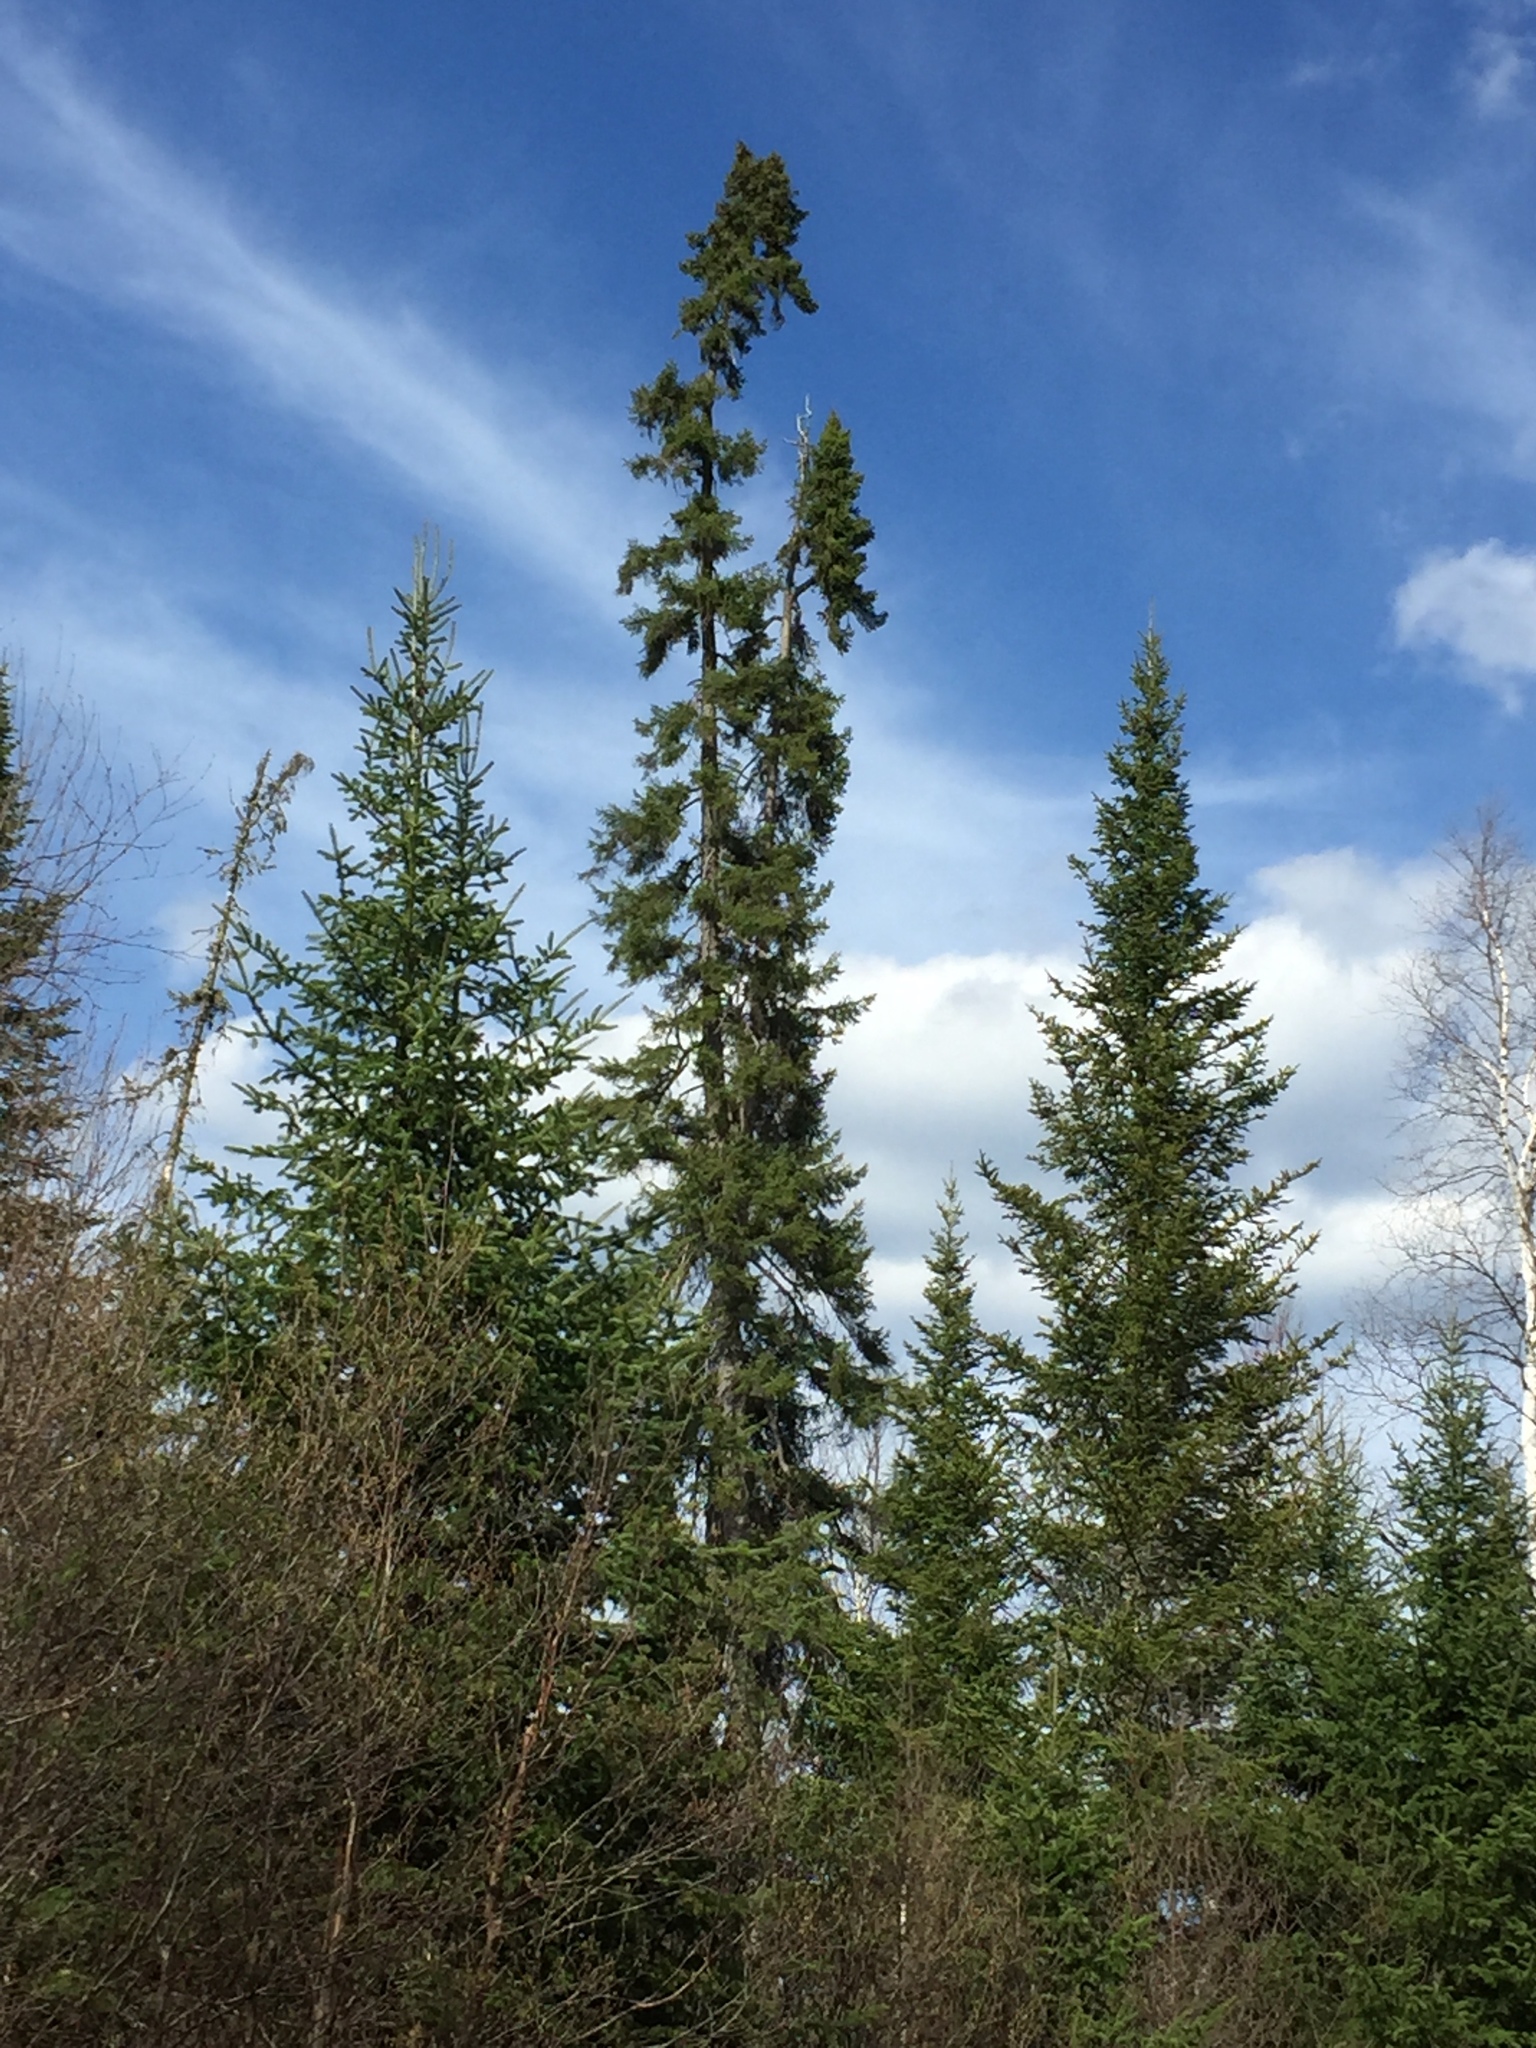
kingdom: Plantae
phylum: Tracheophyta
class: Pinopsida
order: Pinales
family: Pinaceae
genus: Picea
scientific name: Picea mariana
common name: Black spruce
